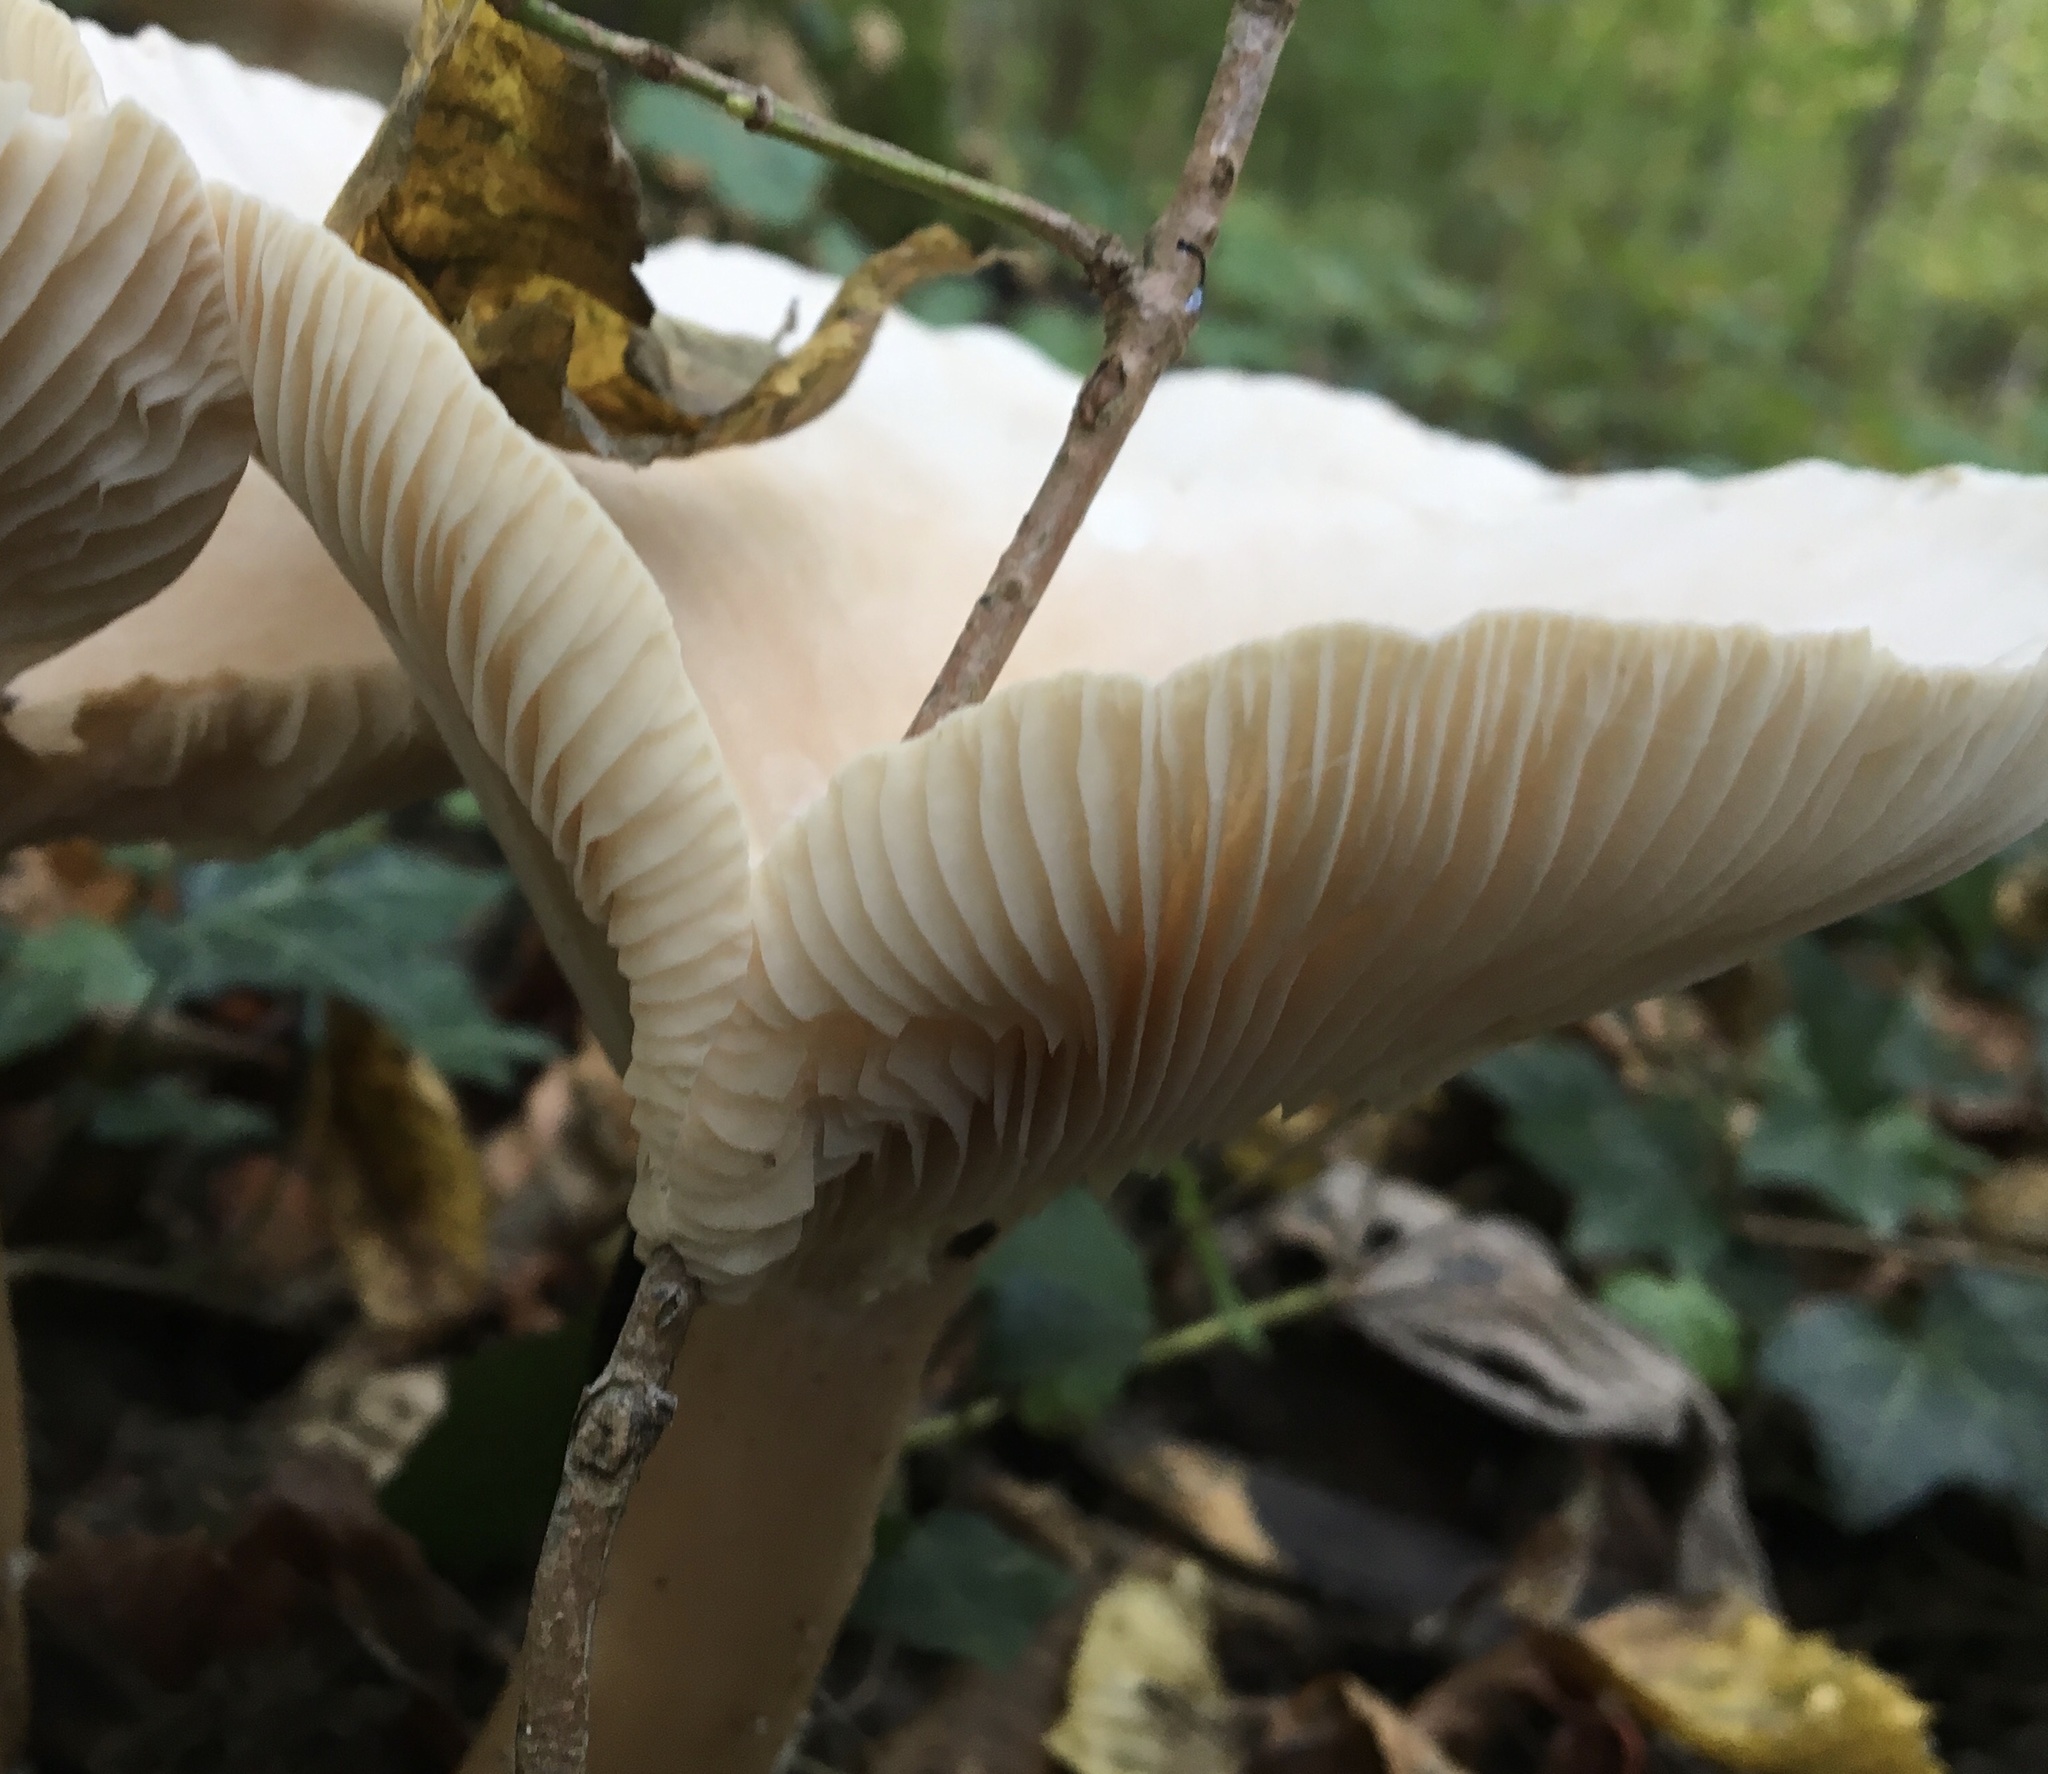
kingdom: Fungi
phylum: Basidiomycota
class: Agaricomycetes
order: Agaricales
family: Tricholomataceae
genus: Infundibulicybe
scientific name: Infundibulicybe gibba
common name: Common funnel
